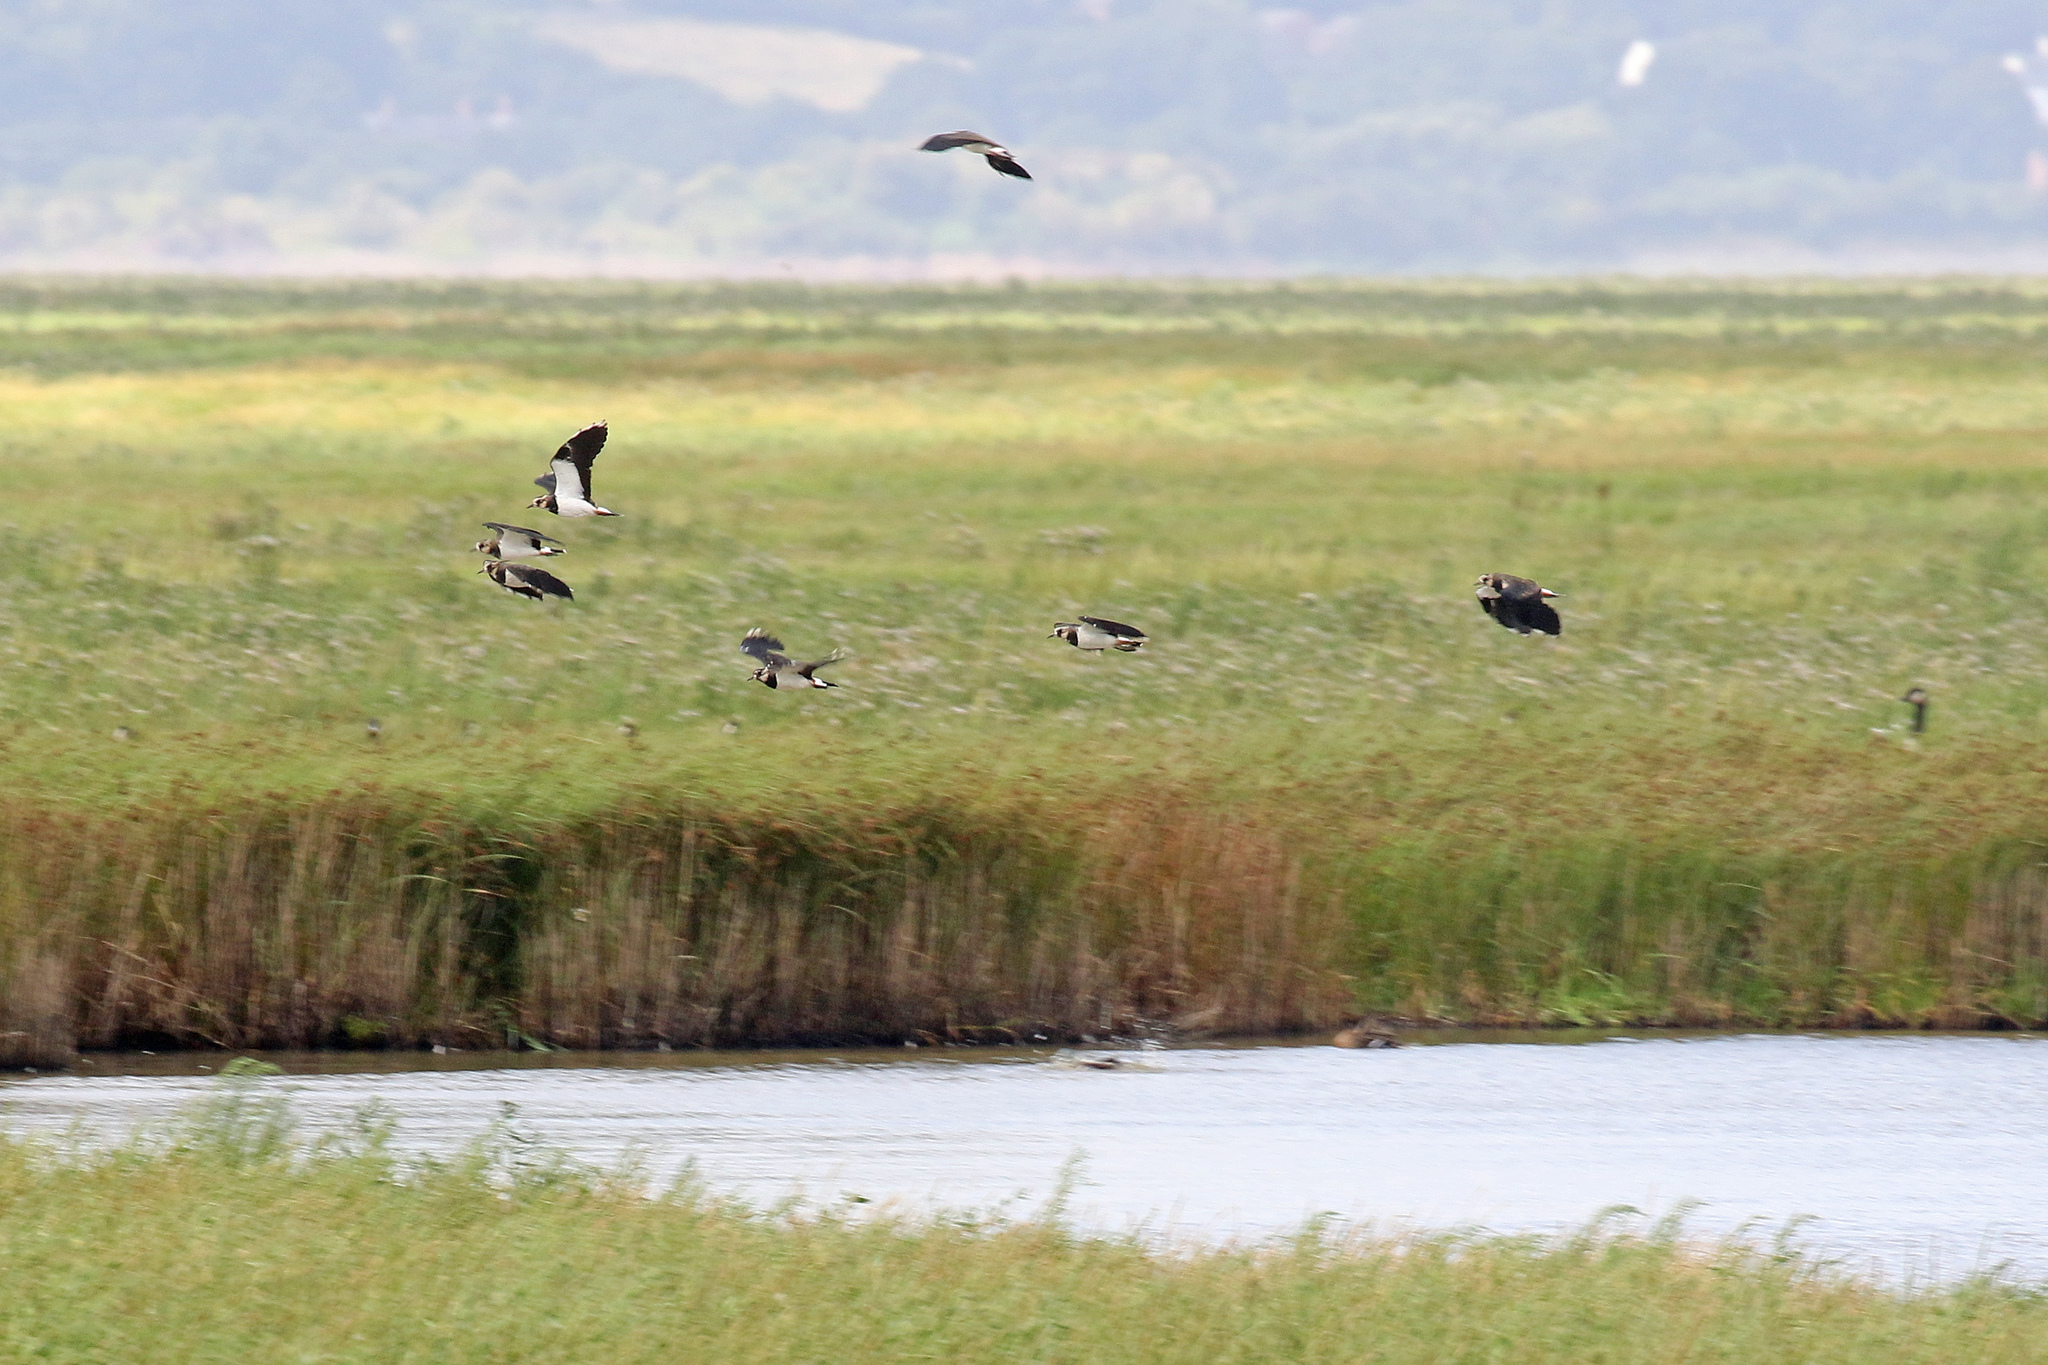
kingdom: Animalia
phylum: Chordata
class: Aves
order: Charadriiformes
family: Charadriidae
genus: Vanellus
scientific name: Vanellus vanellus
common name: Northern lapwing
